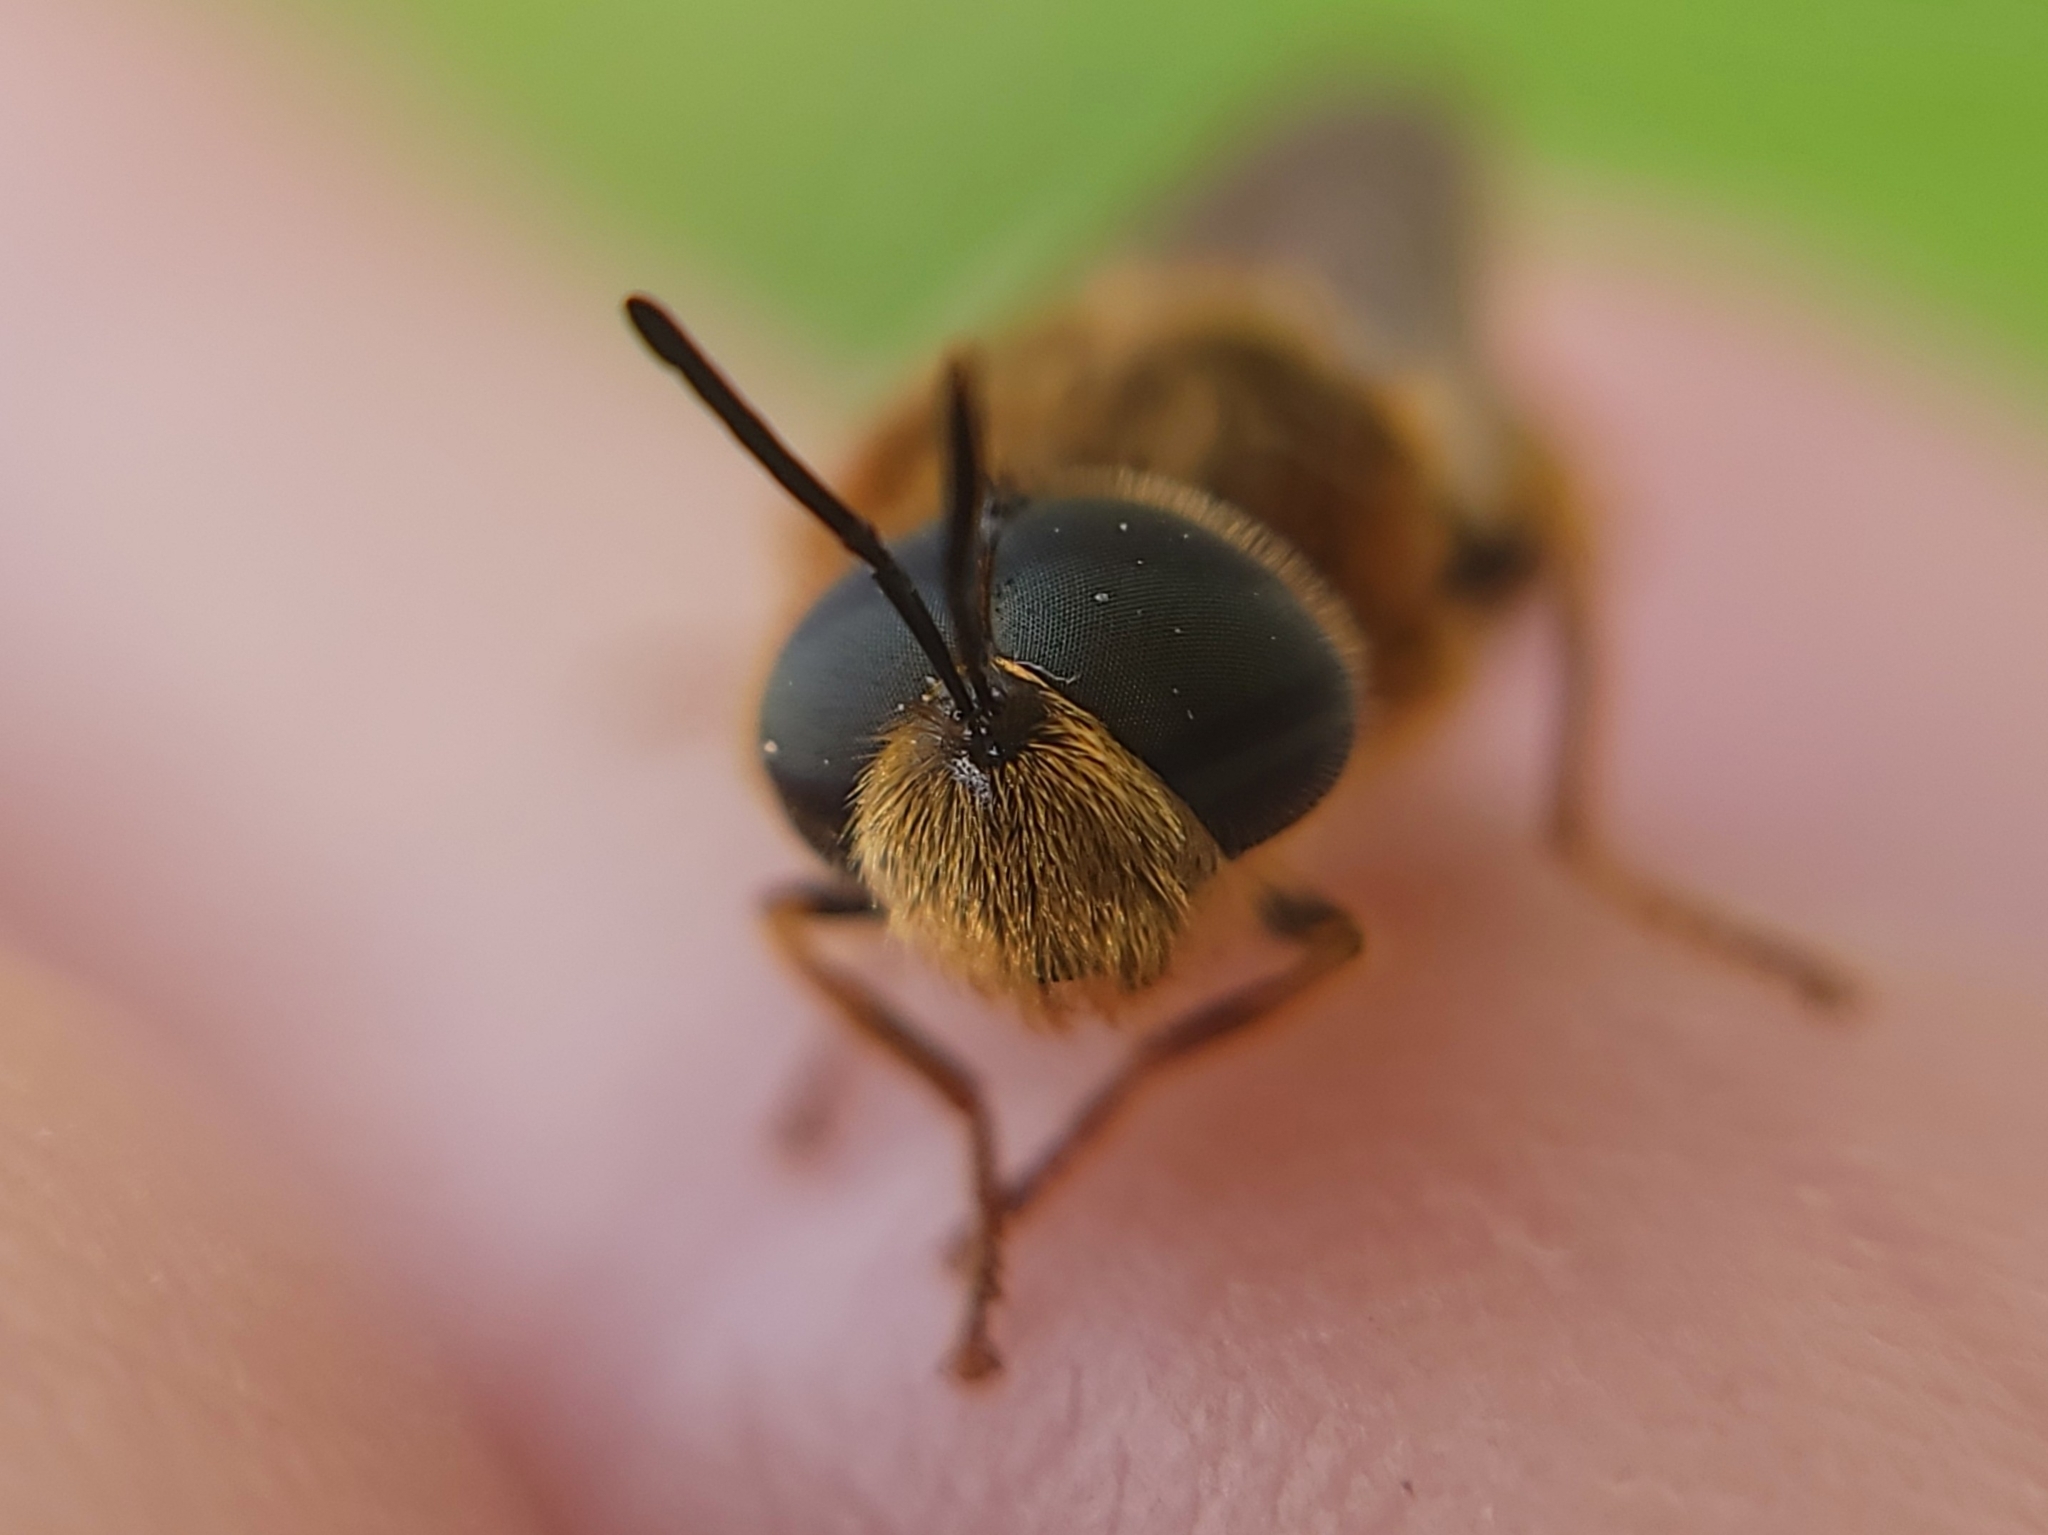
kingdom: Animalia
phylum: Arthropoda
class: Insecta
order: Diptera
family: Stratiomyidae
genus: Stratiomys
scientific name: Stratiomys maculosa
